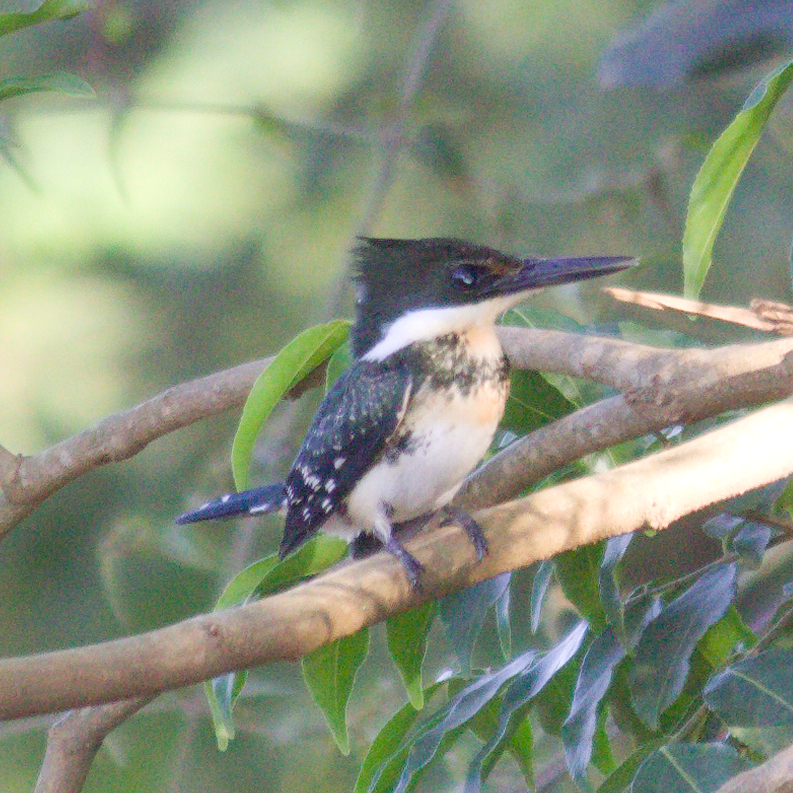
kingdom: Animalia
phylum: Chordata
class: Aves
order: Coraciiformes
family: Alcedinidae
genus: Chloroceryle
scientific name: Chloroceryle americana
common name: Green kingfisher
